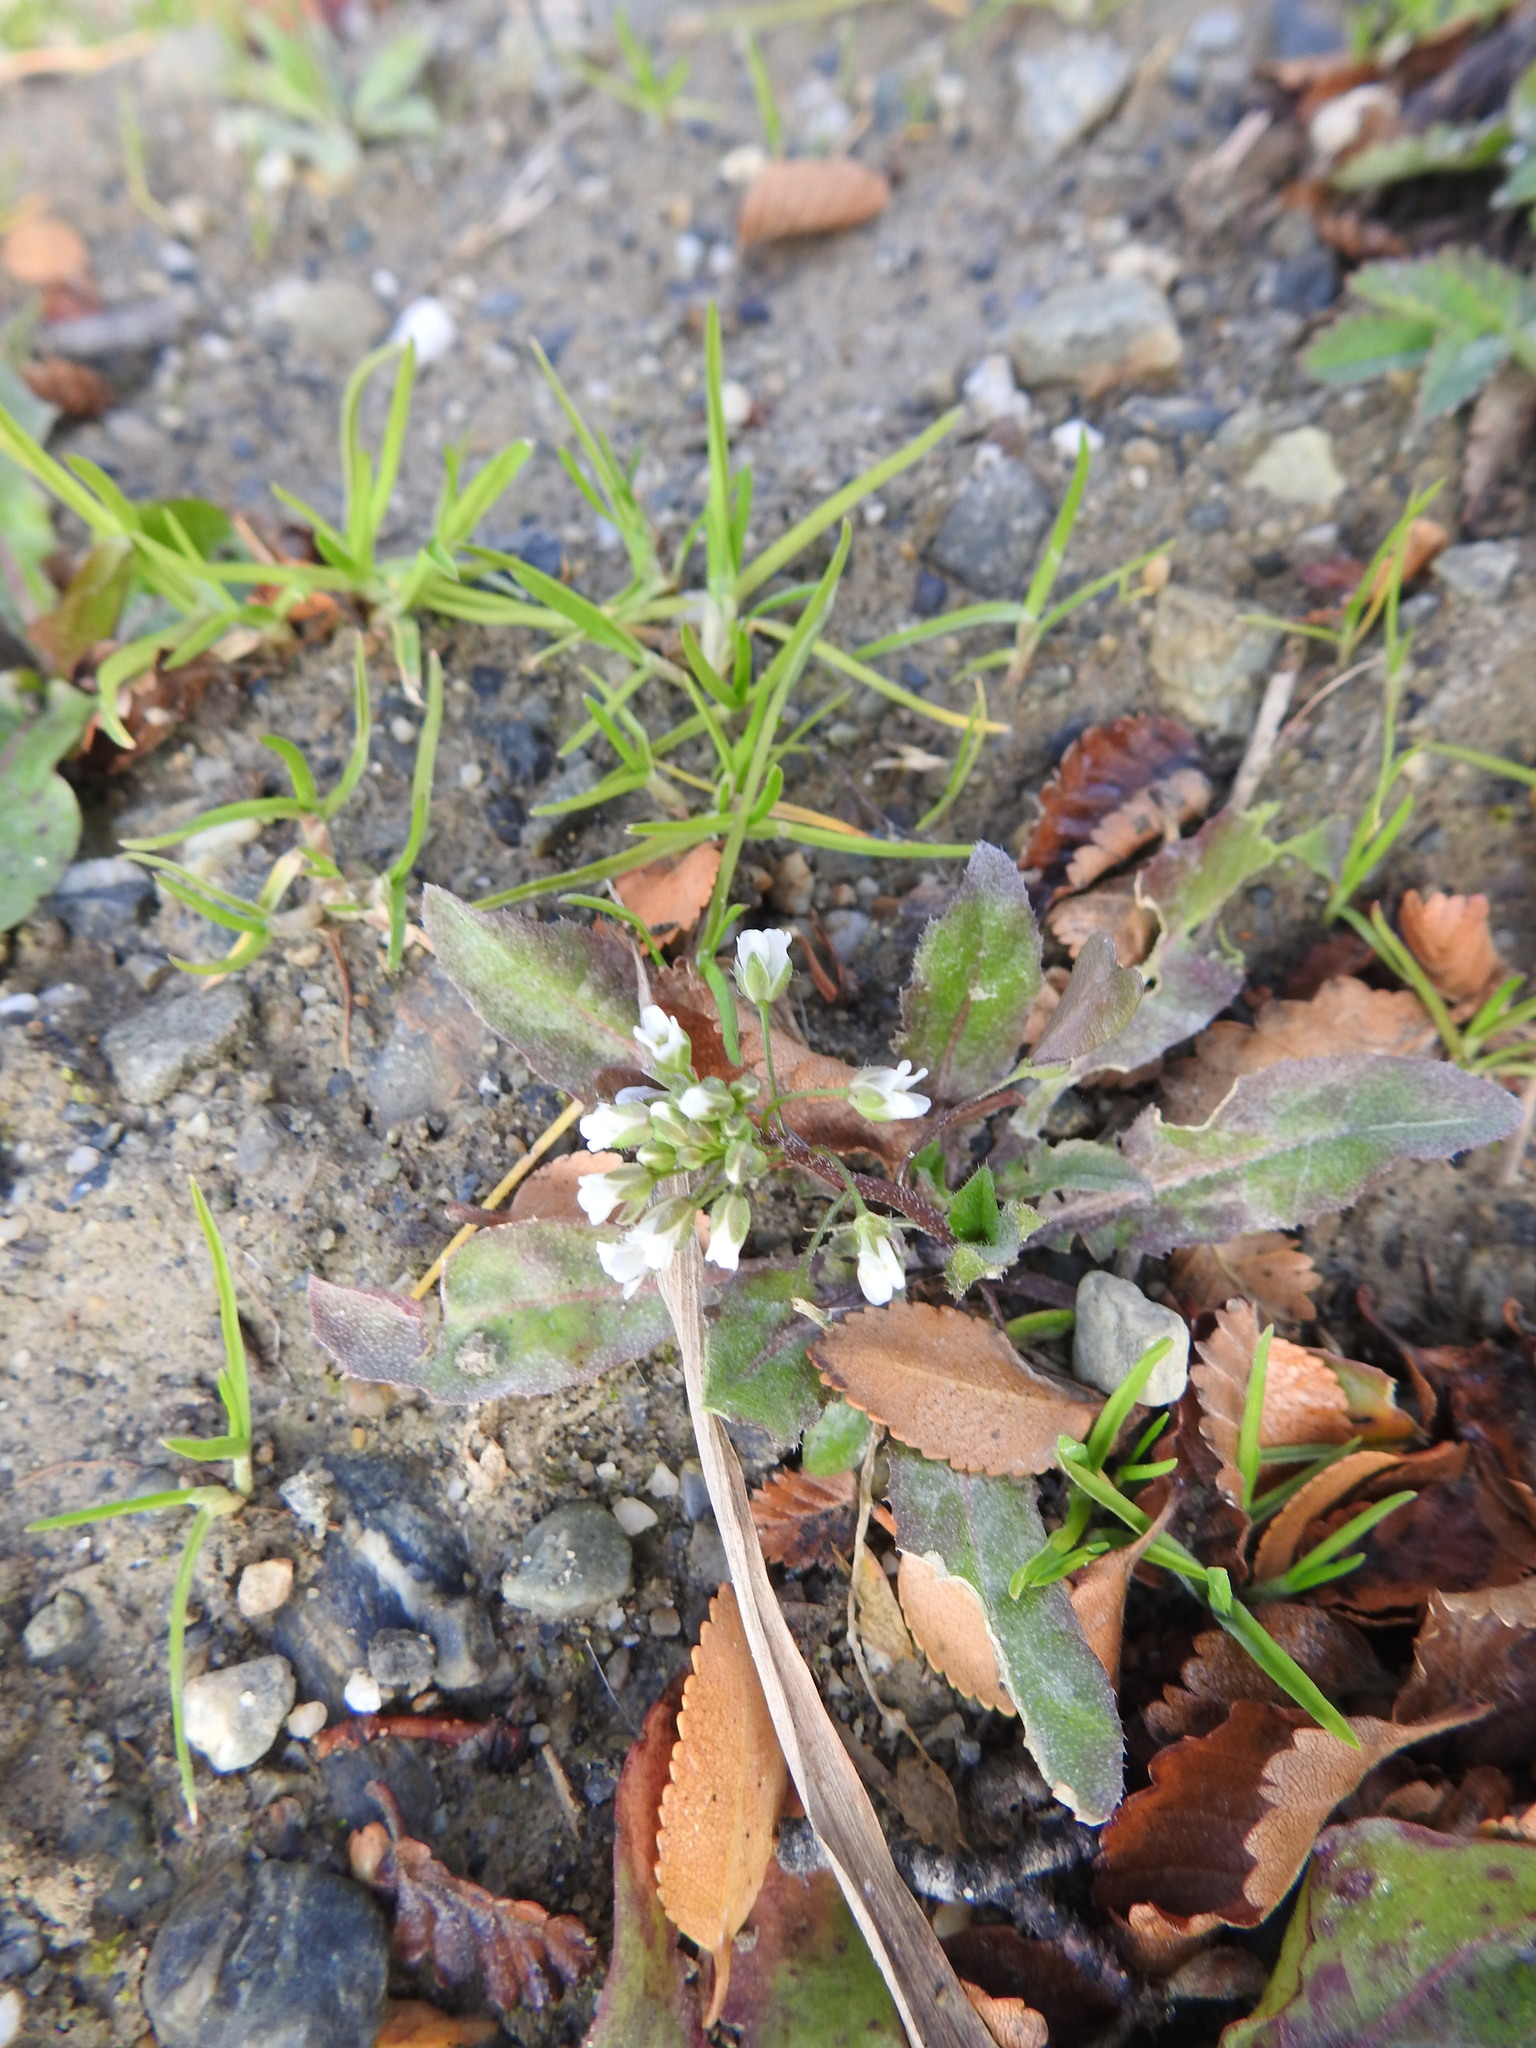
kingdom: Plantae
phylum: Tracheophyta
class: Magnoliopsida
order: Brassicales
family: Brassicaceae
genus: Capsella
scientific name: Capsella bursa-pastoris
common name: Shepherd's purse
